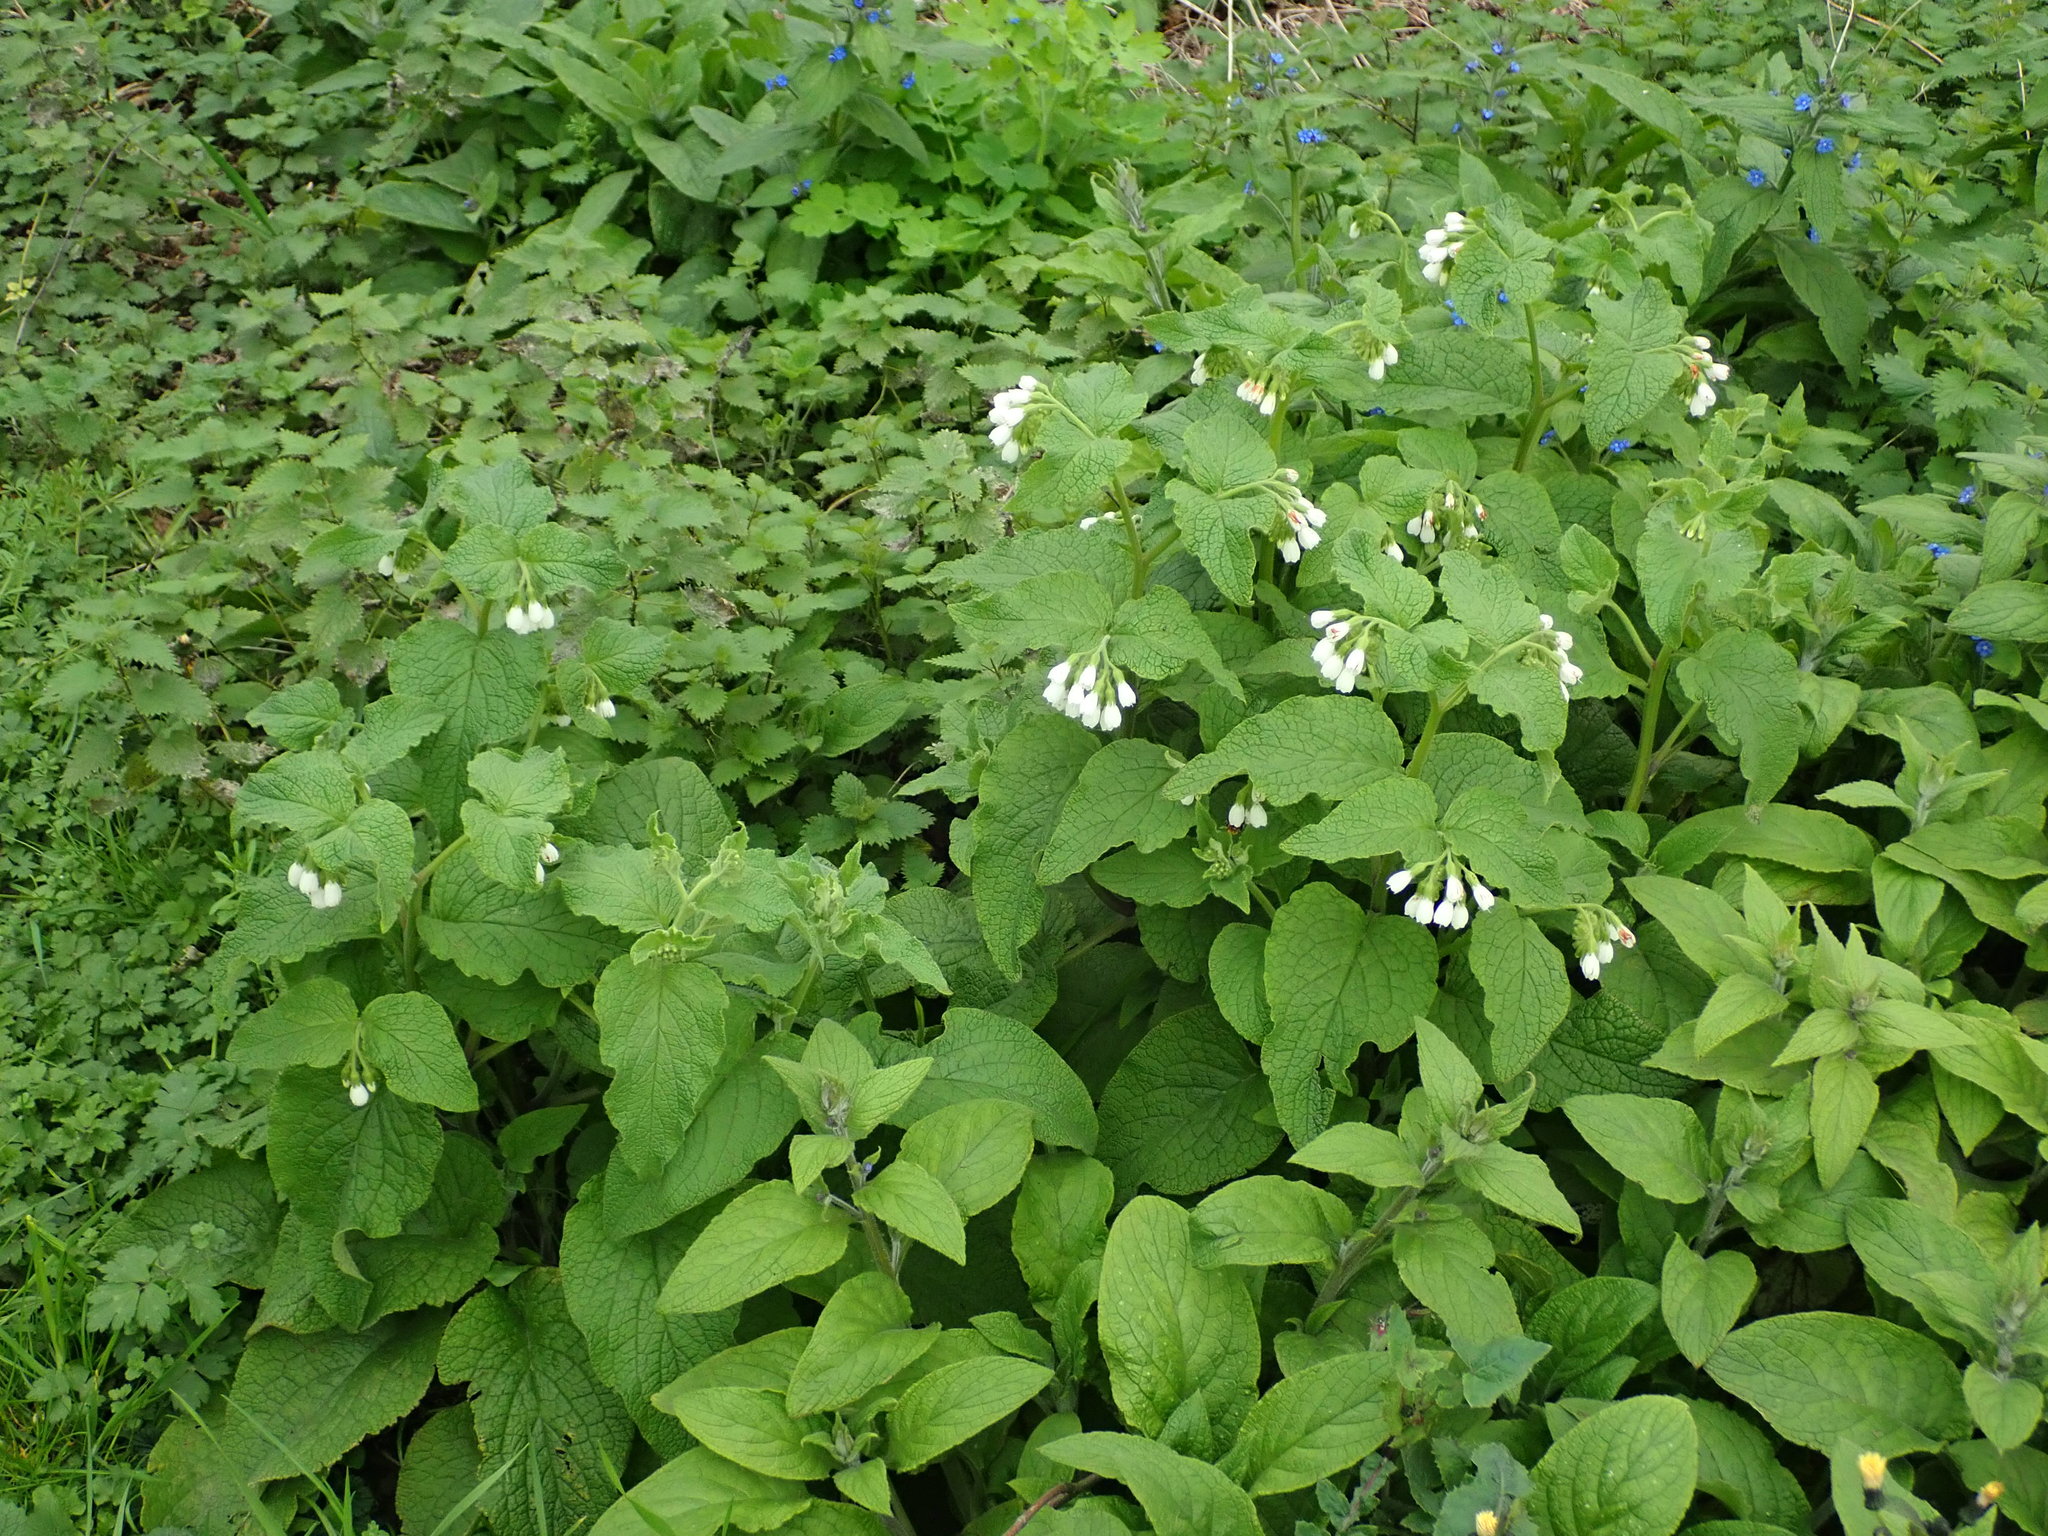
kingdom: Plantae
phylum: Tracheophyta
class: Magnoliopsida
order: Boraginales
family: Boraginaceae
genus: Symphytum
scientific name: Symphytum orientale
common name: White comfrey
